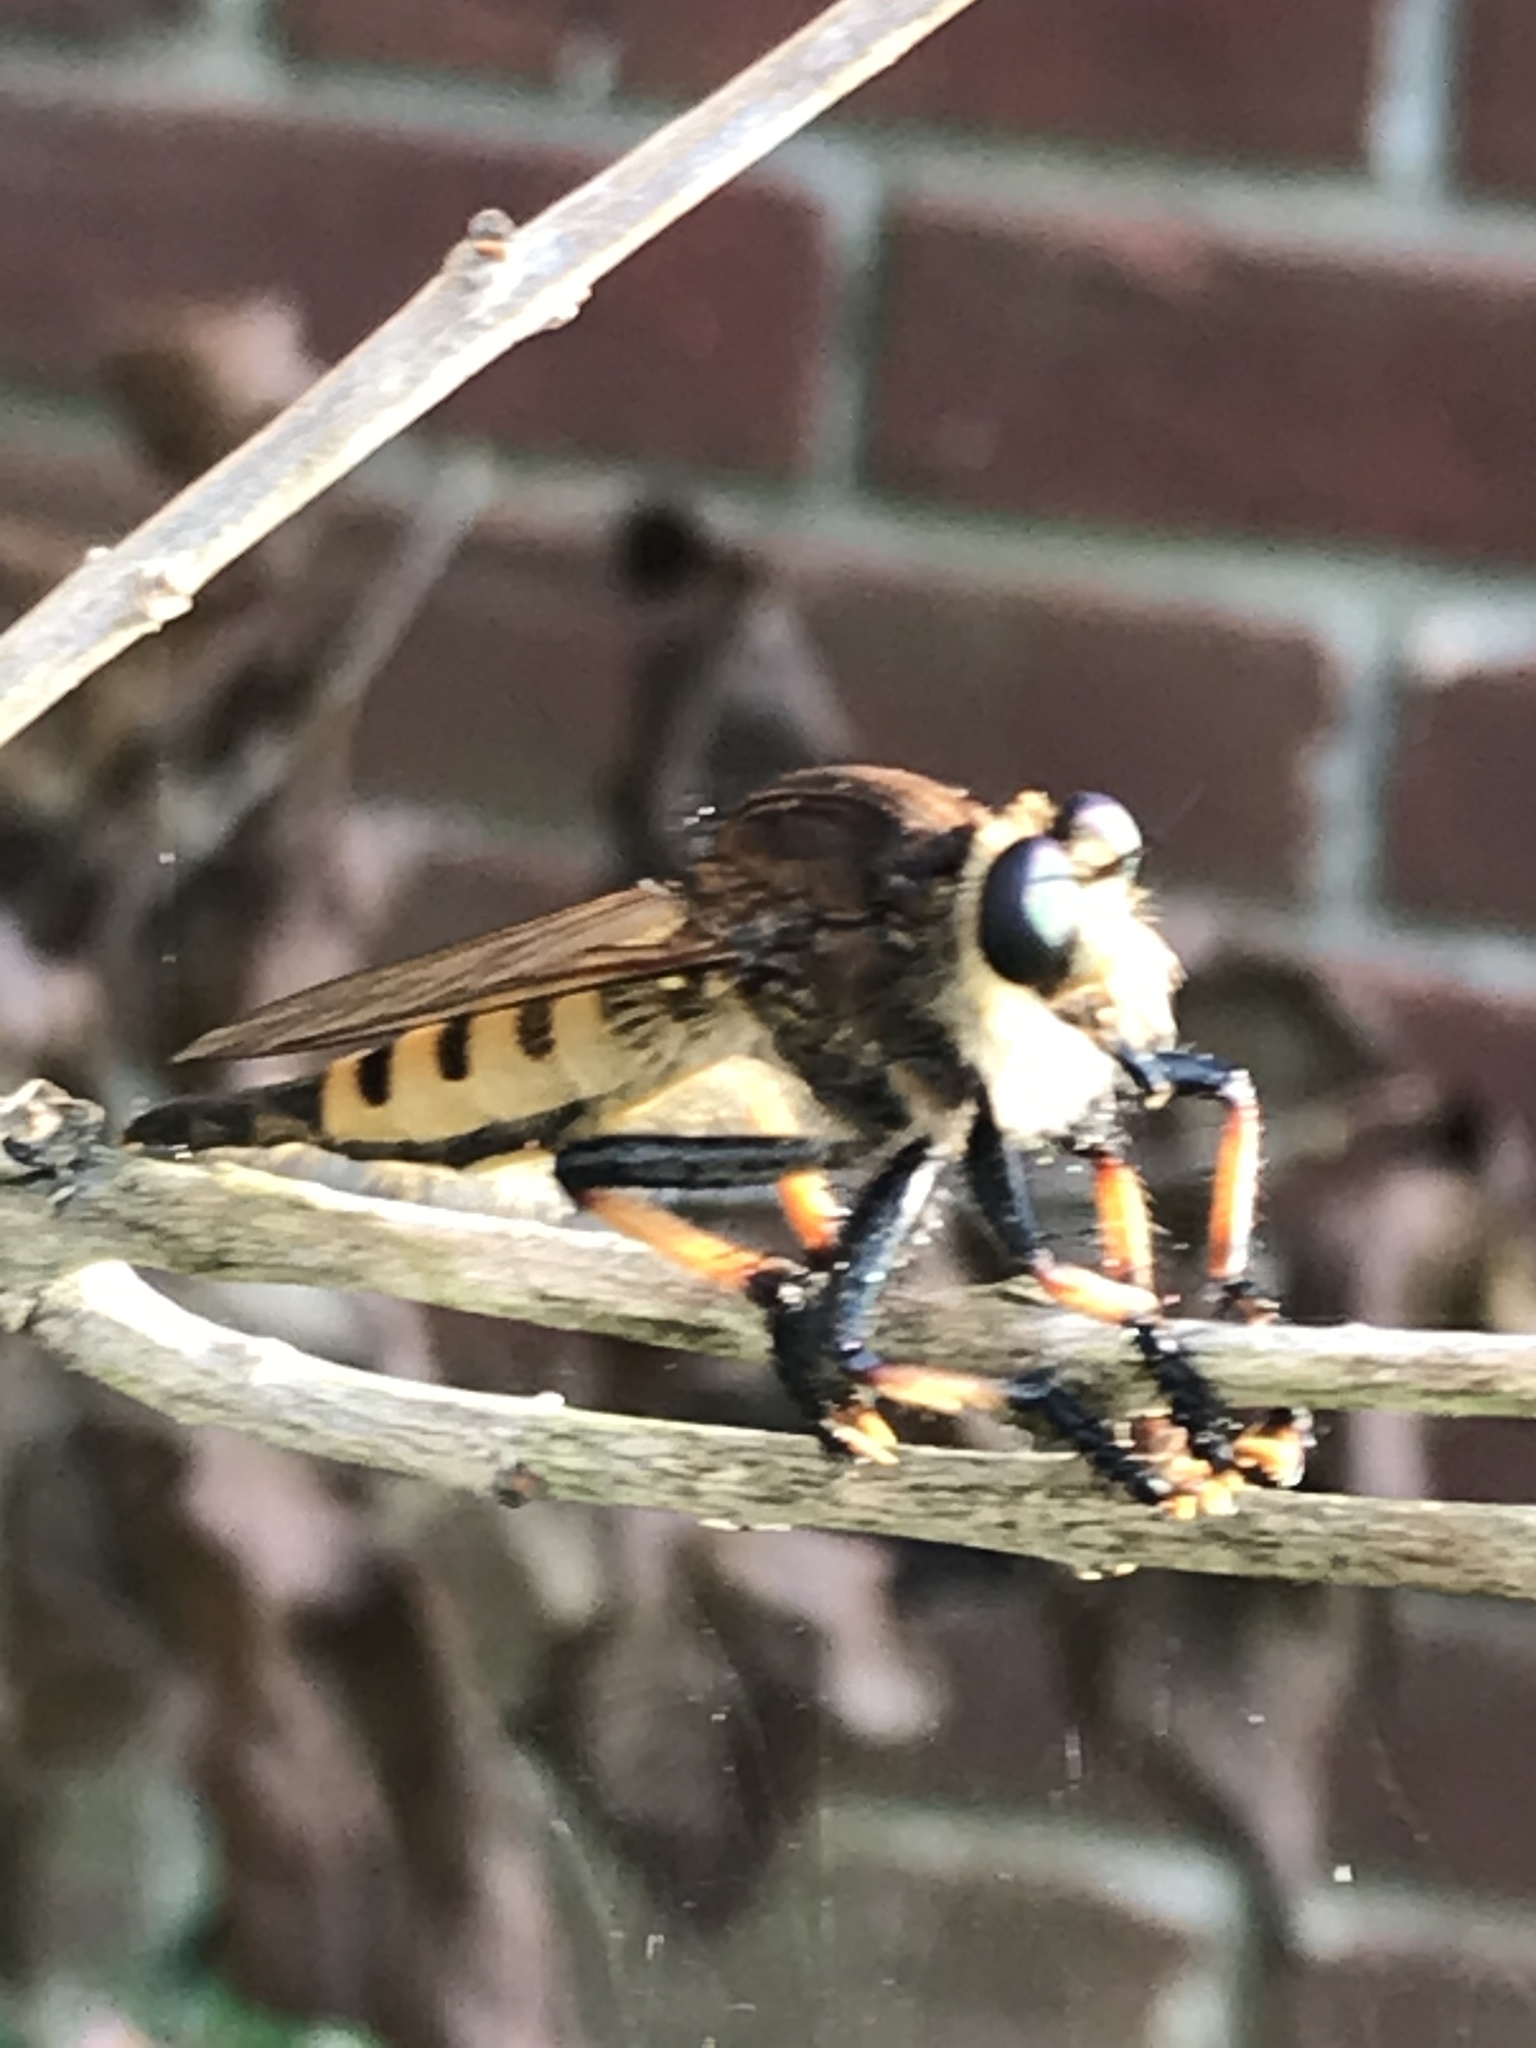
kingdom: Animalia
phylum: Arthropoda
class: Insecta
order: Diptera
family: Asilidae
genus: Promachus
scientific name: Promachus rufipes
